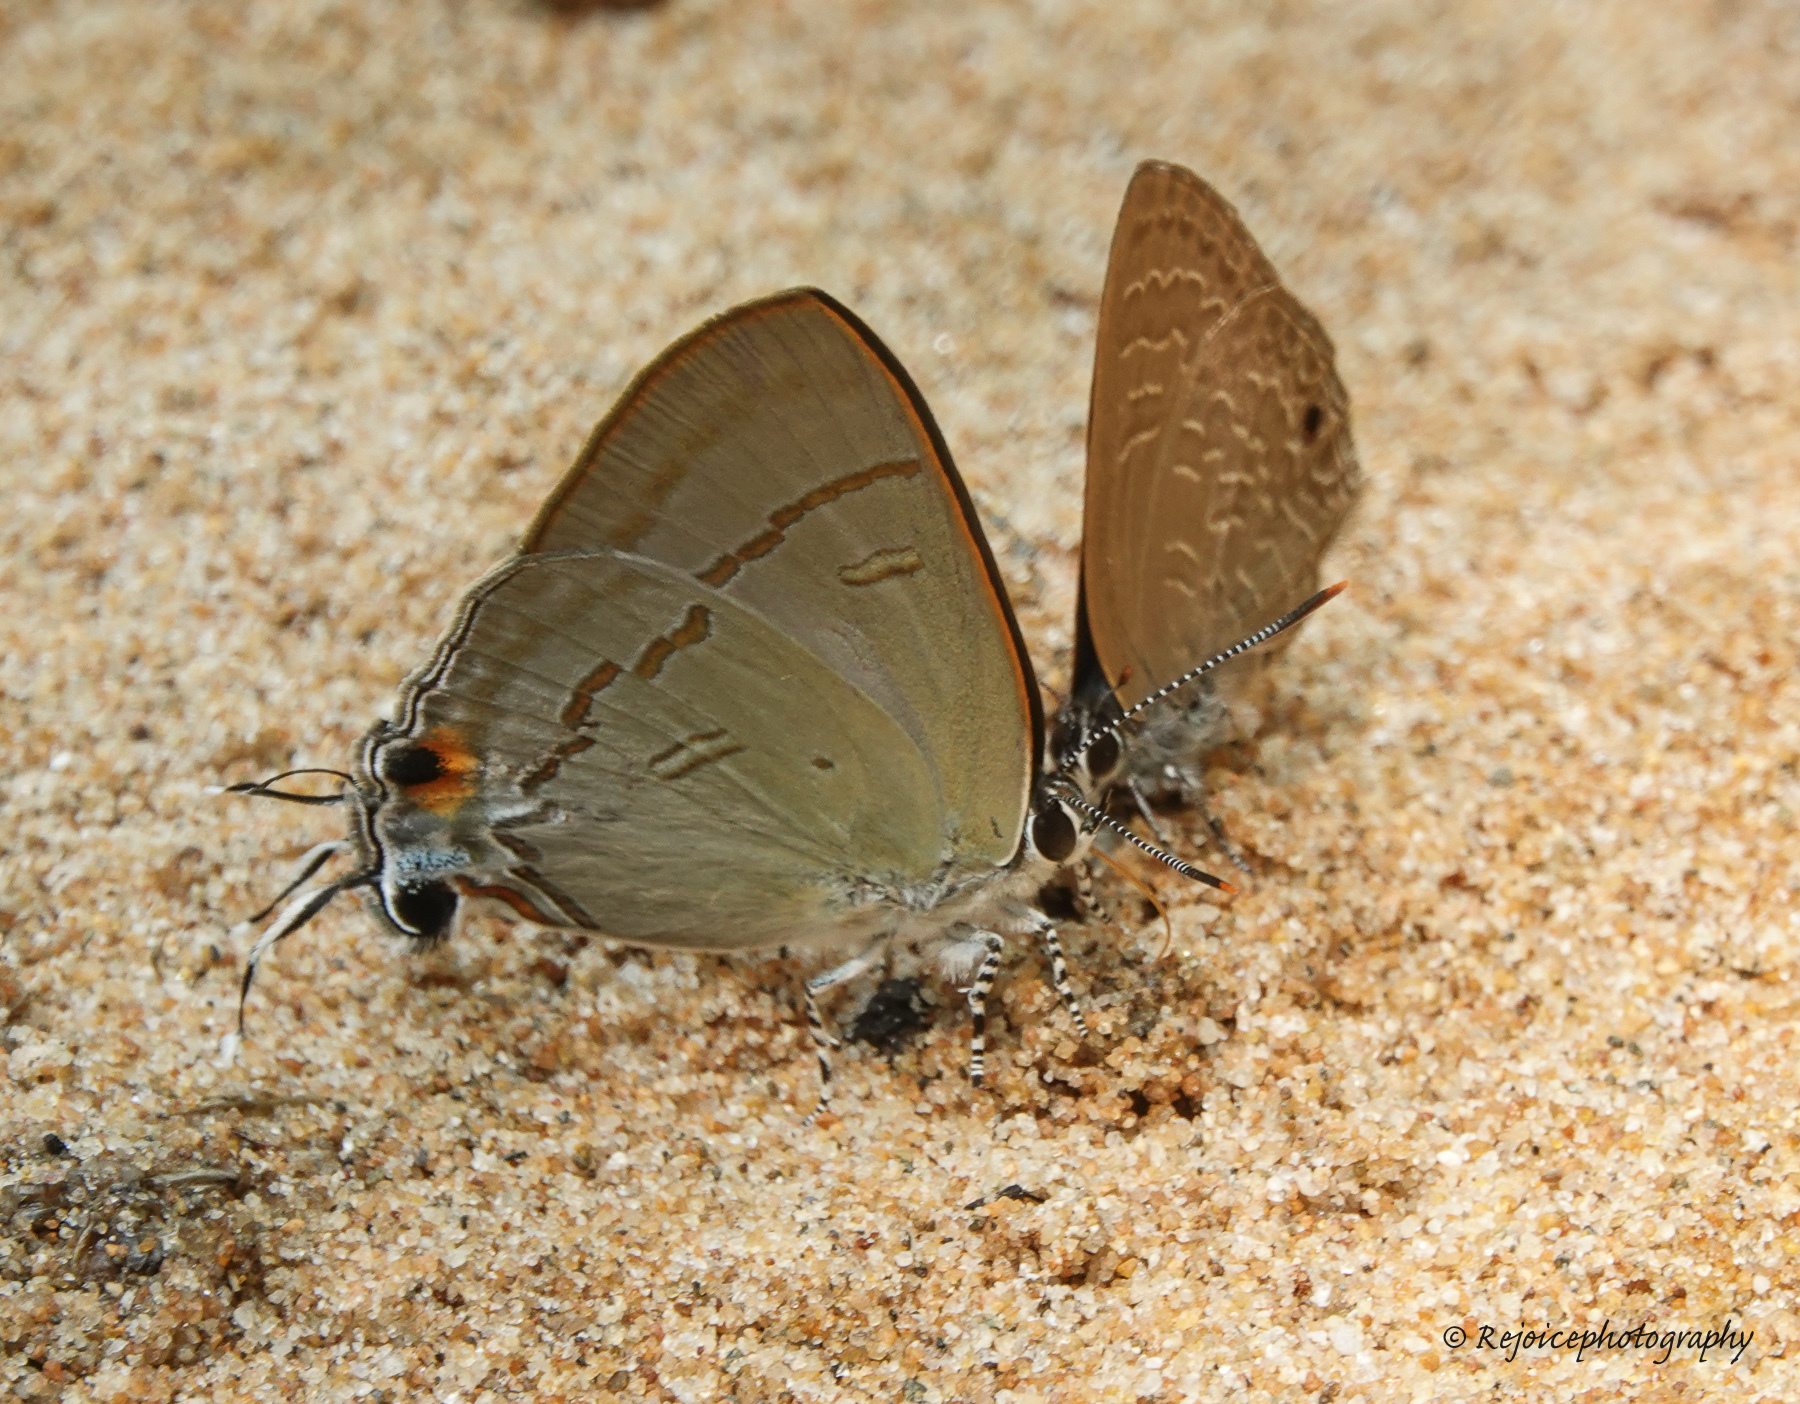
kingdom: Animalia
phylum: Arthropoda
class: Insecta
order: Lepidoptera
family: Lycaenidae
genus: Hypolycaena
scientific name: Hypolycaena erylus
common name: Common tit
